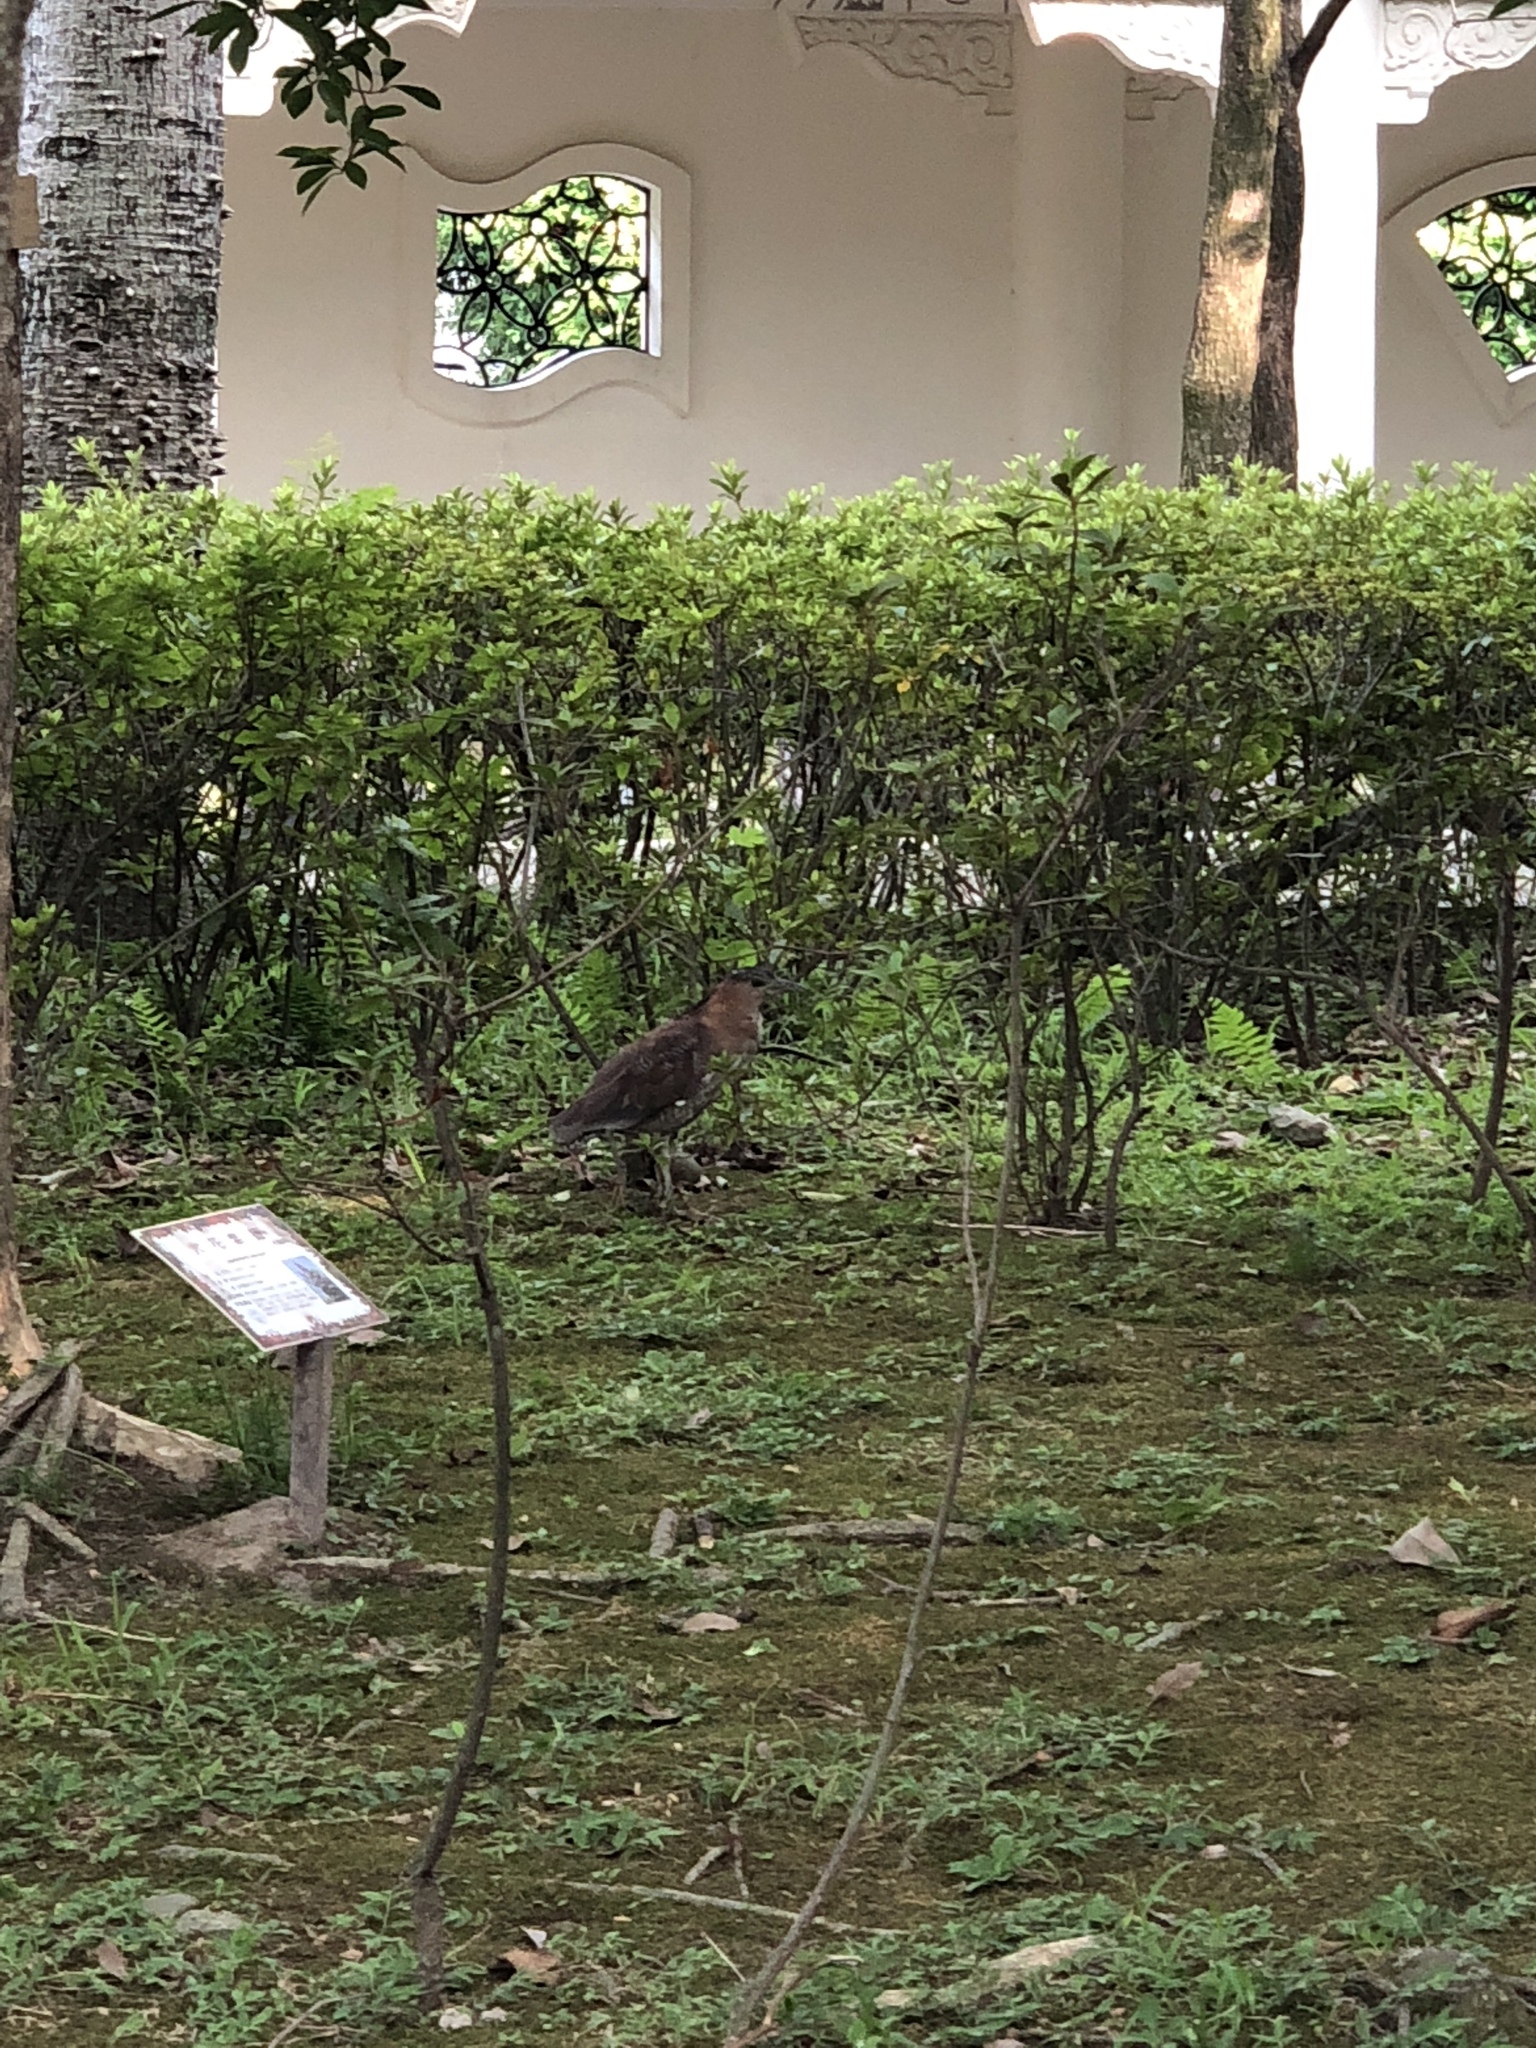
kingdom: Animalia
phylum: Chordata
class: Aves
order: Pelecaniformes
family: Ardeidae
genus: Gorsachius
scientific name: Gorsachius melanolophus
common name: Malayan night heron
